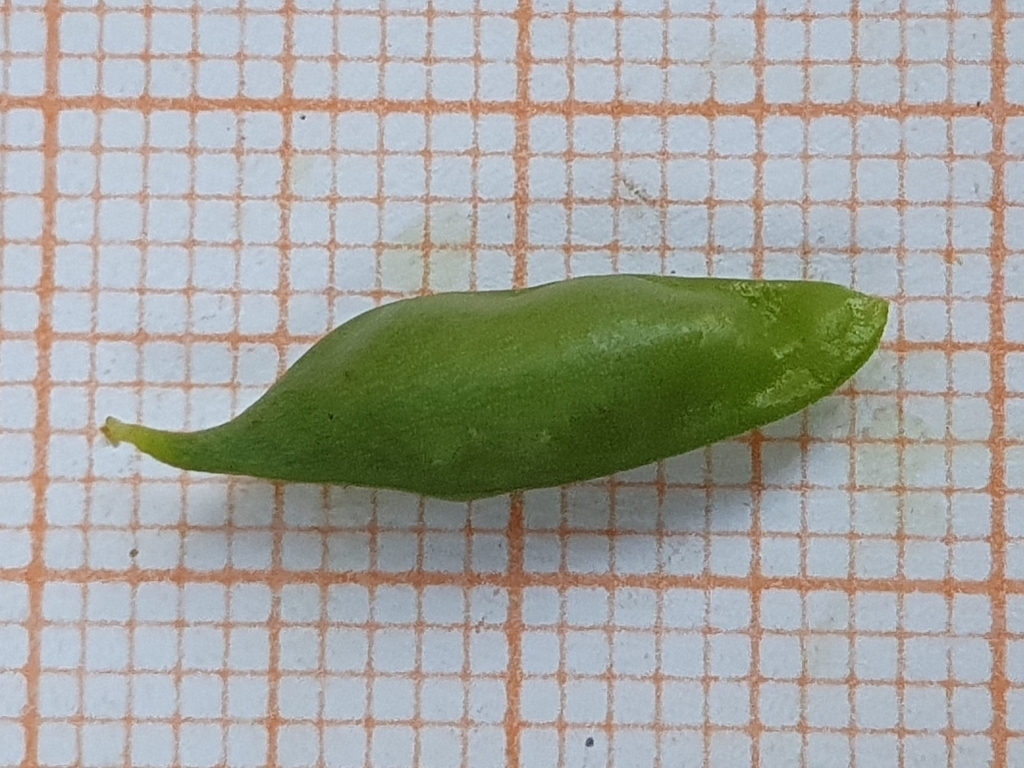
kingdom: Plantae
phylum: Tracheophyta
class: Magnoliopsida
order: Fabales
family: Fabaceae
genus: Vicia
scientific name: Vicia sativa
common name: Garden vetch
